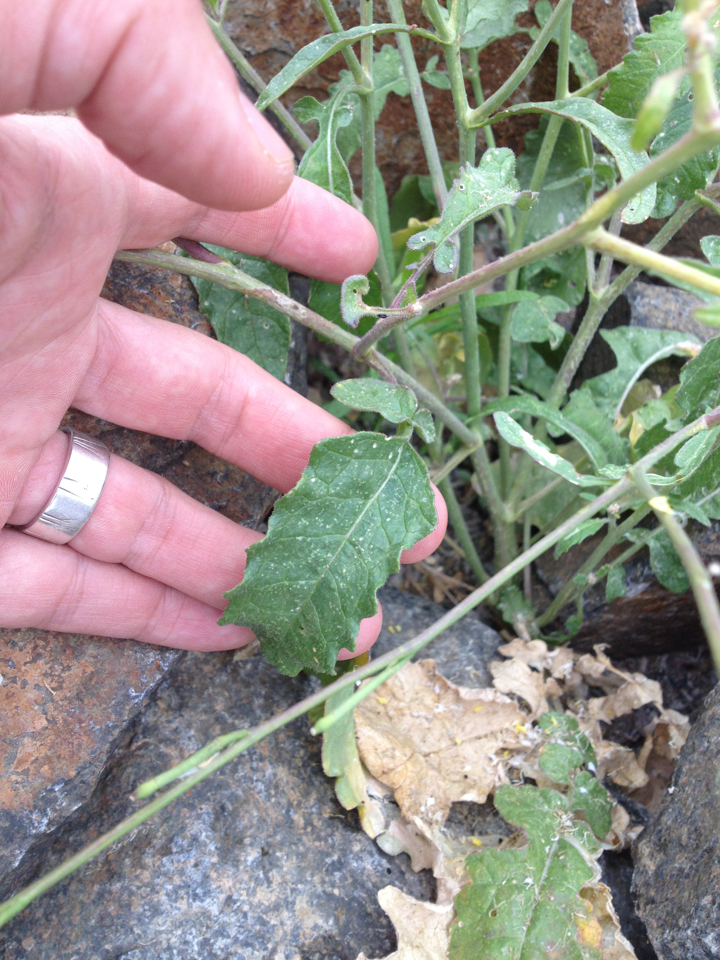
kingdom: Plantae
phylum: Tracheophyta
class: Magnoliopsida
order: Brassicales
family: Brassicaceae
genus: Hirschfeldia
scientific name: Hirschfeldia incana
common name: Hoary mustard
